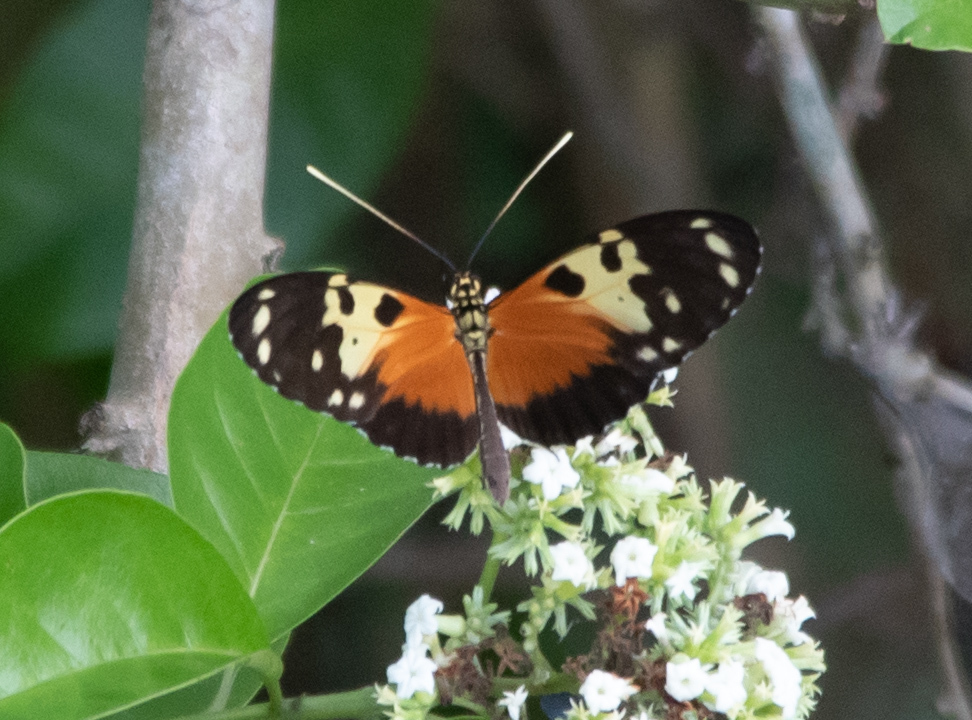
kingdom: Animalia
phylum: Arthropoda
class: Insecta
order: Lepidoptera
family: Nymphalidae
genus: Heliconius
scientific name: Heliconius hecale
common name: Tiger longwing
